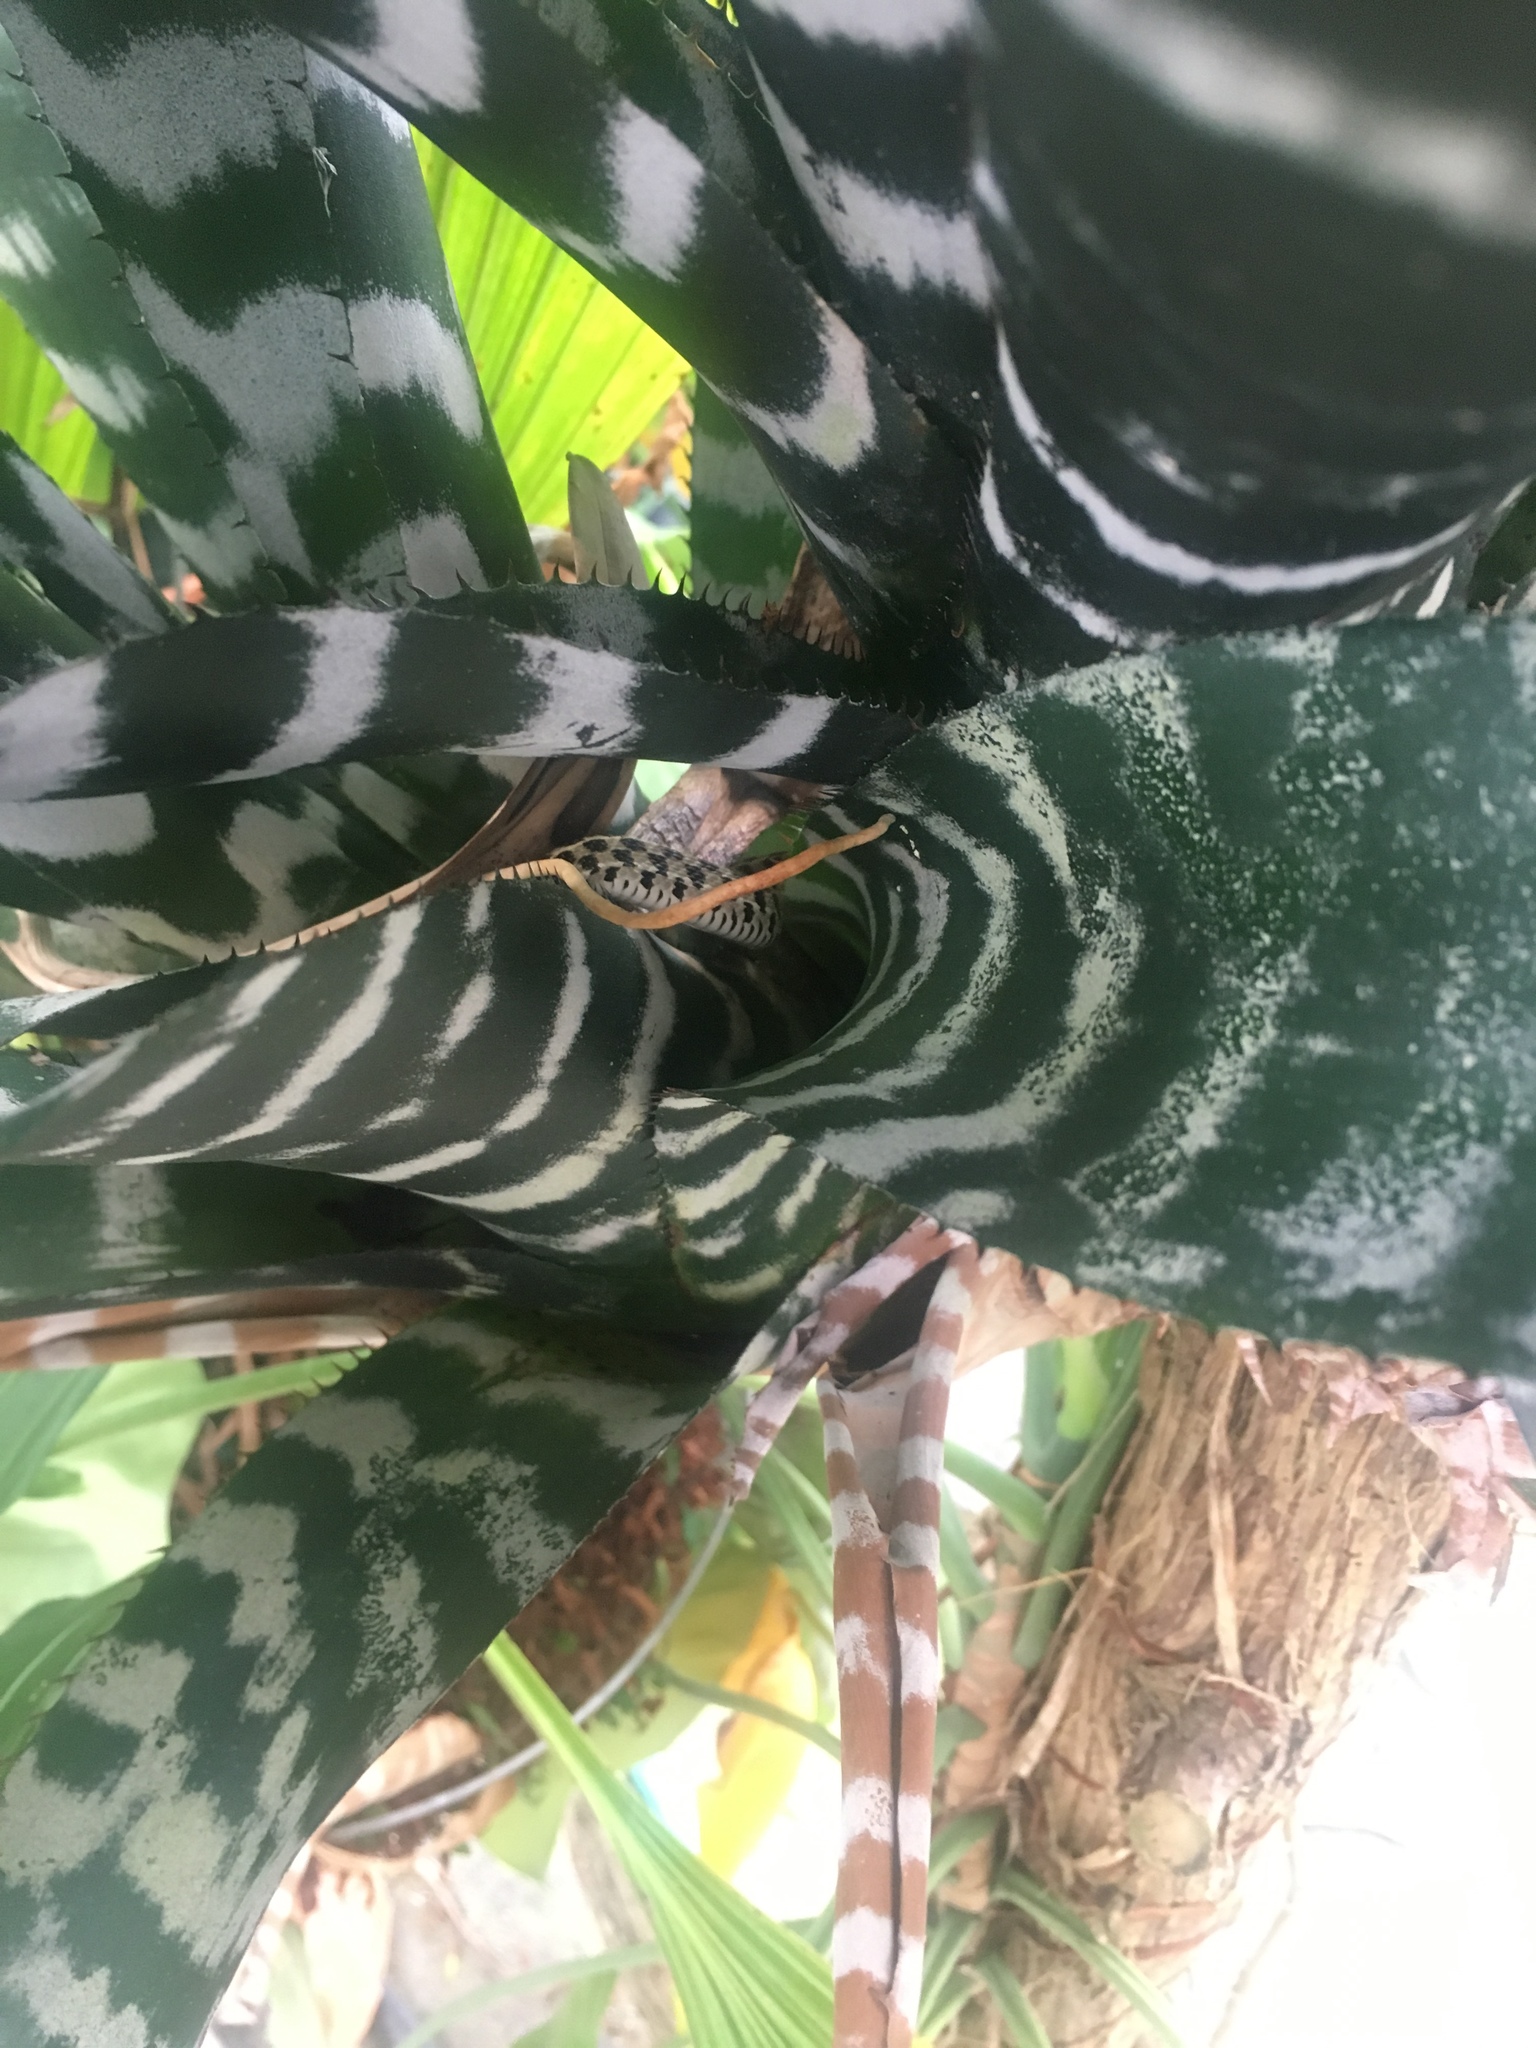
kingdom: Animalia
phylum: Chordata
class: Squamata
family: Colubridae
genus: Thamnophis
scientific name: Thamnophis marcianus
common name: Checkered garter snake
